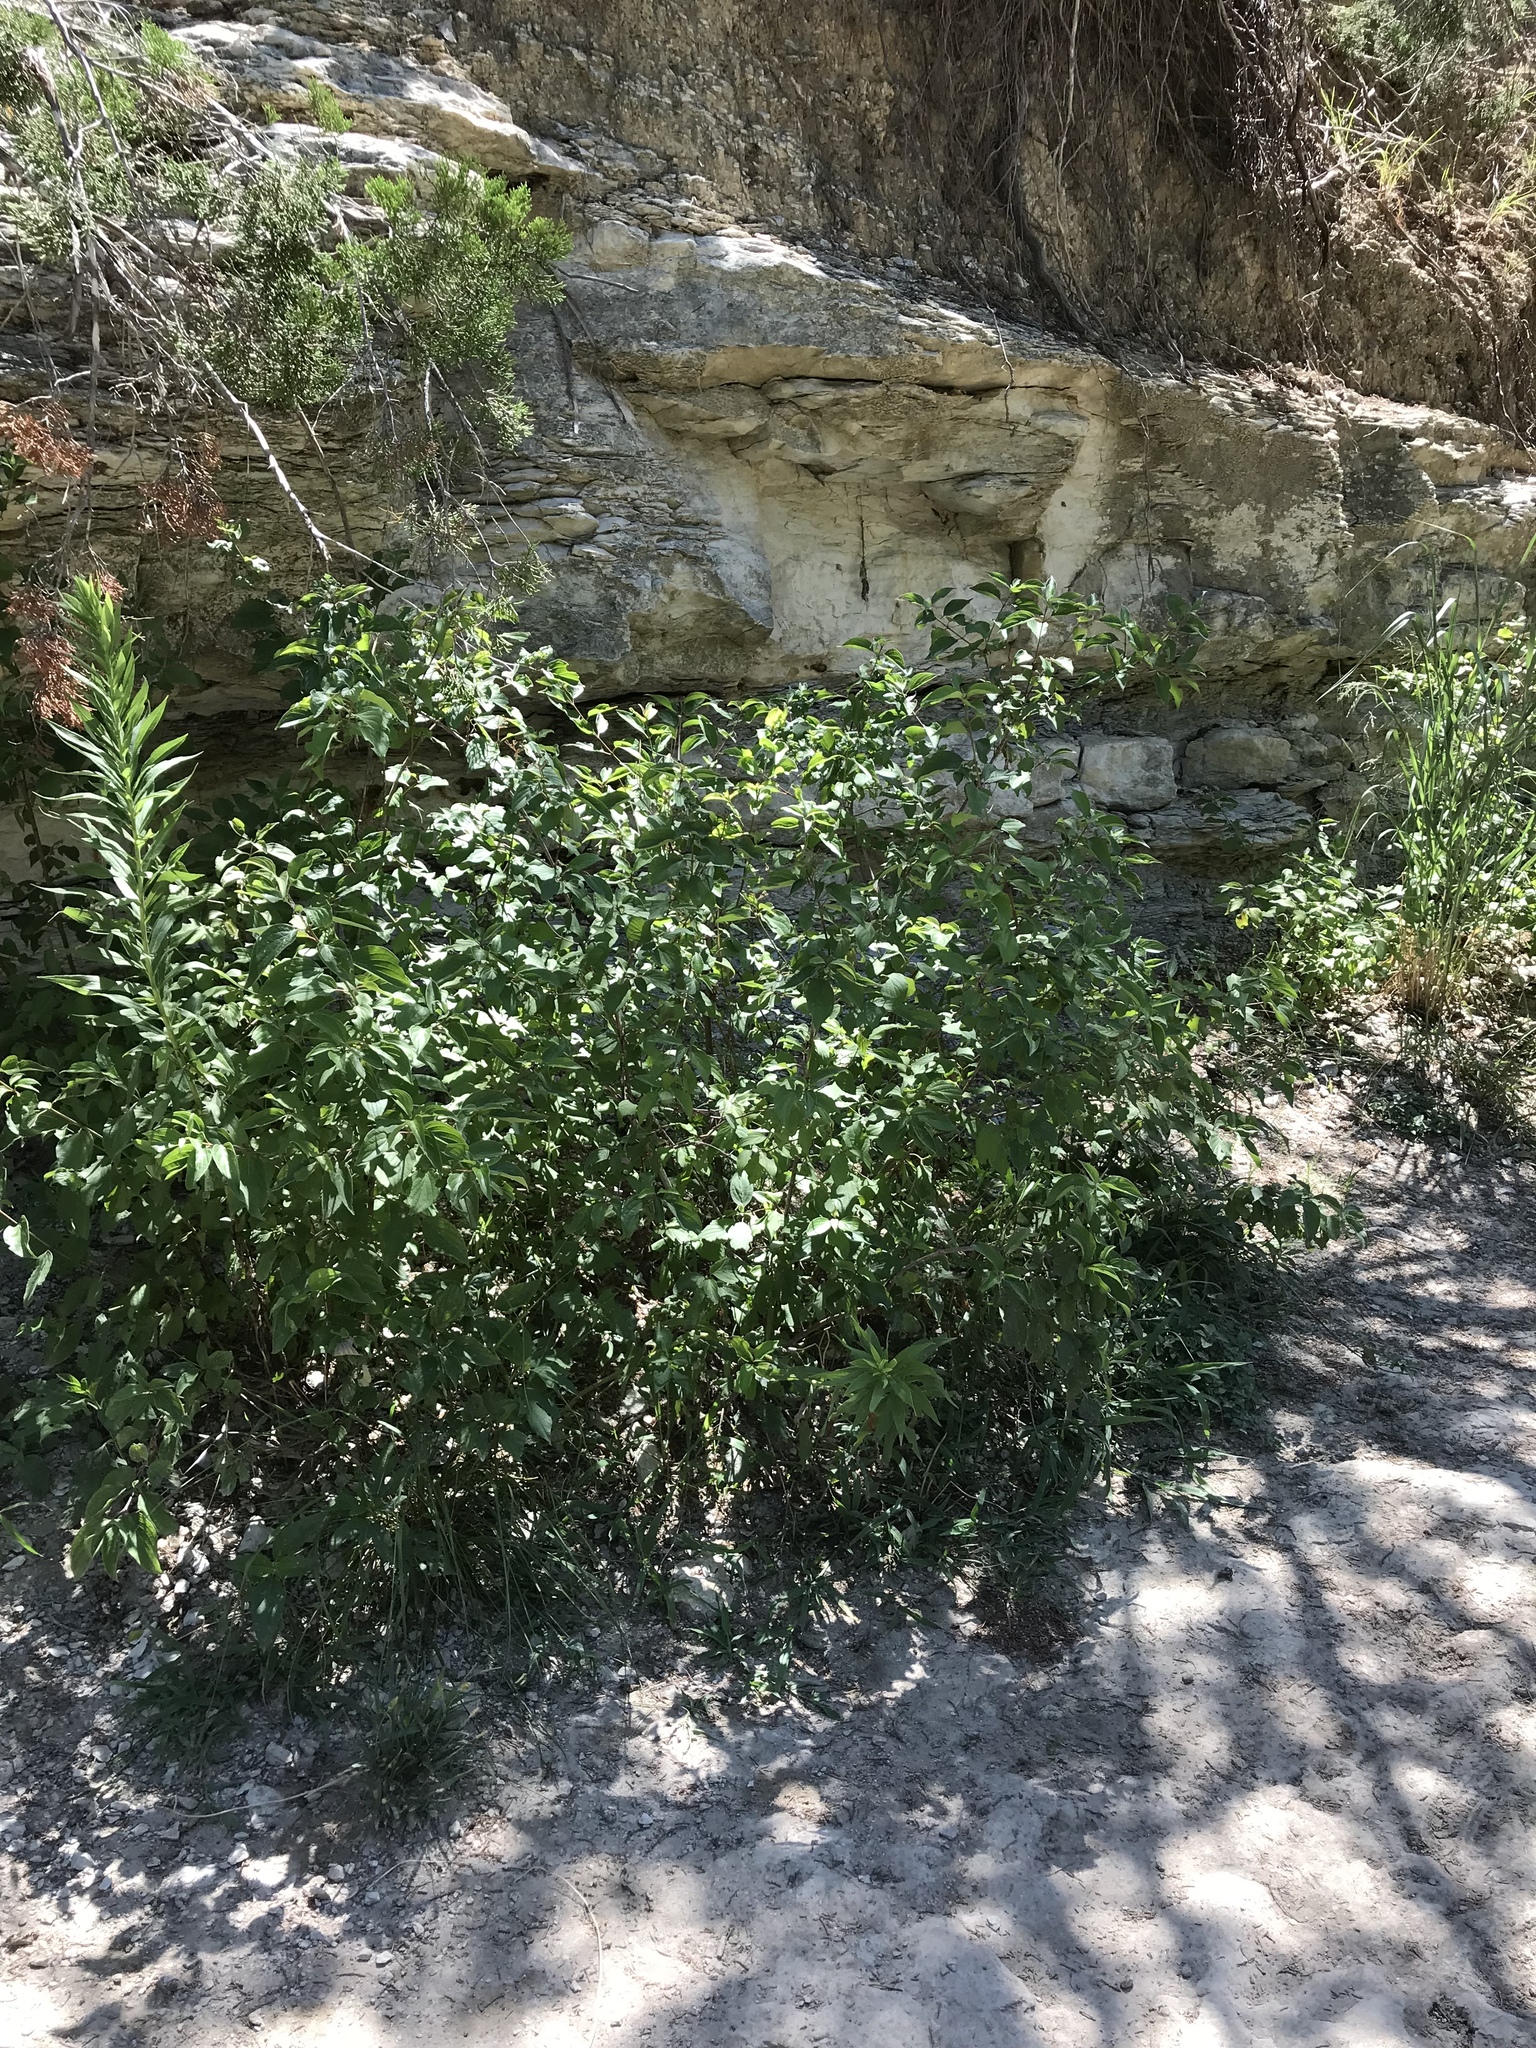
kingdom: Plantae
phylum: Tracheophyta
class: Magnoliopsida
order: Cornales
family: Cornaceae
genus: Cornus
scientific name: Cornus drummondii
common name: Rough-leaf dogwood
